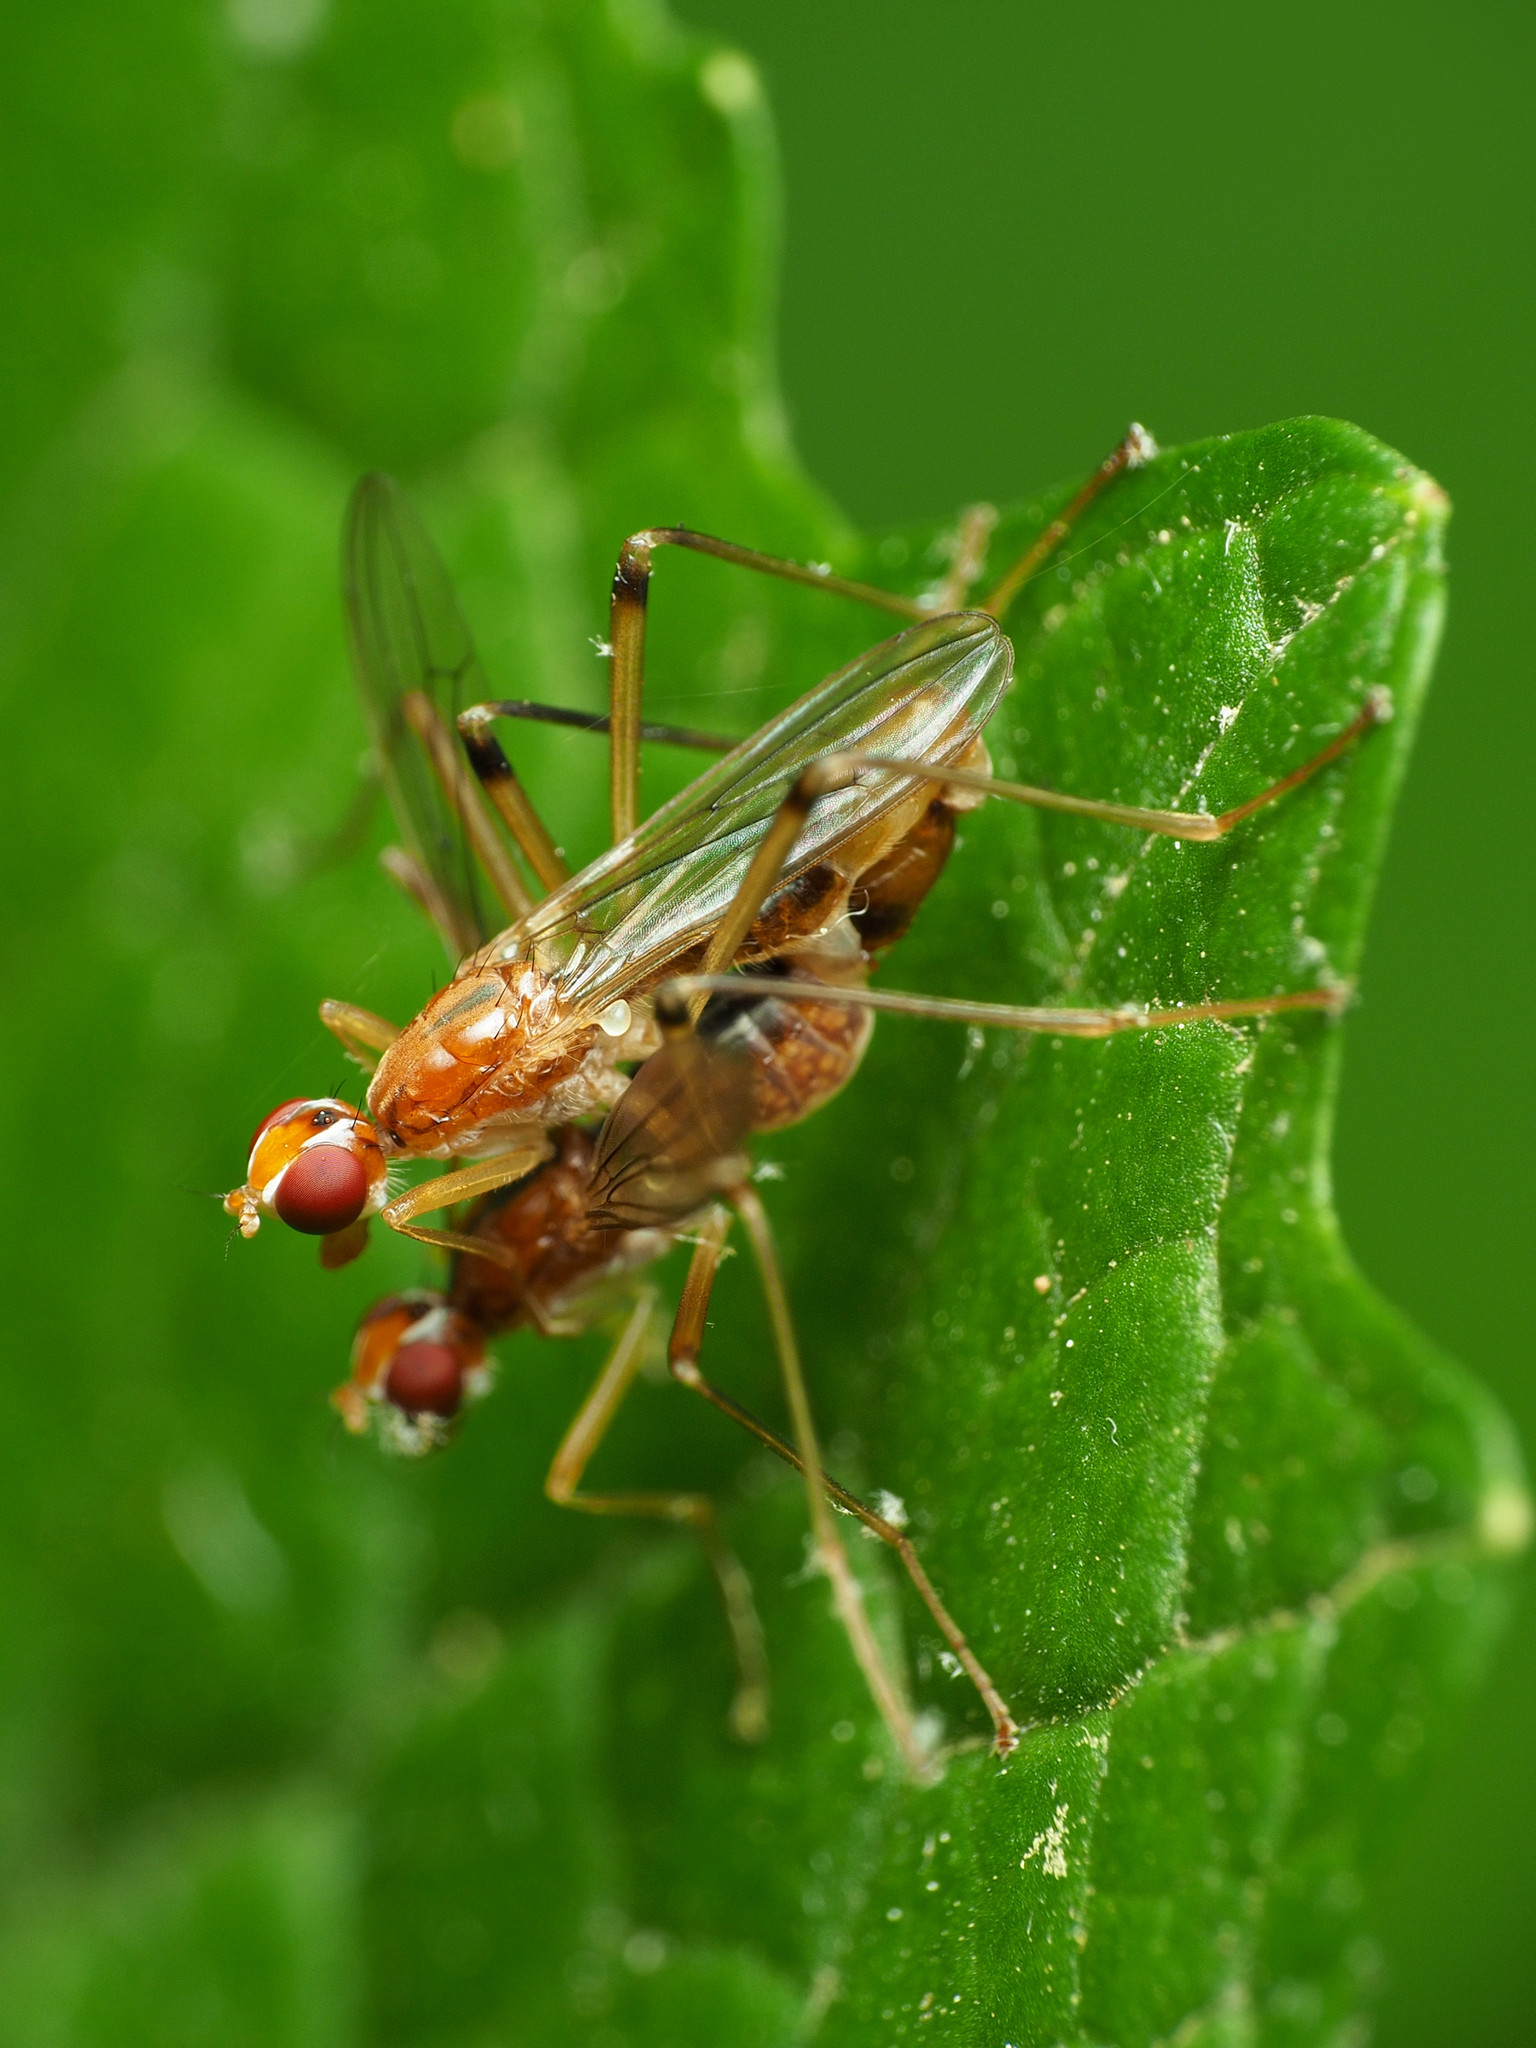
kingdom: Animalia
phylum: Arthropoda
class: Insecta
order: Diptera
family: Micropezidae
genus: Compsobata
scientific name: Compsobata univitta
